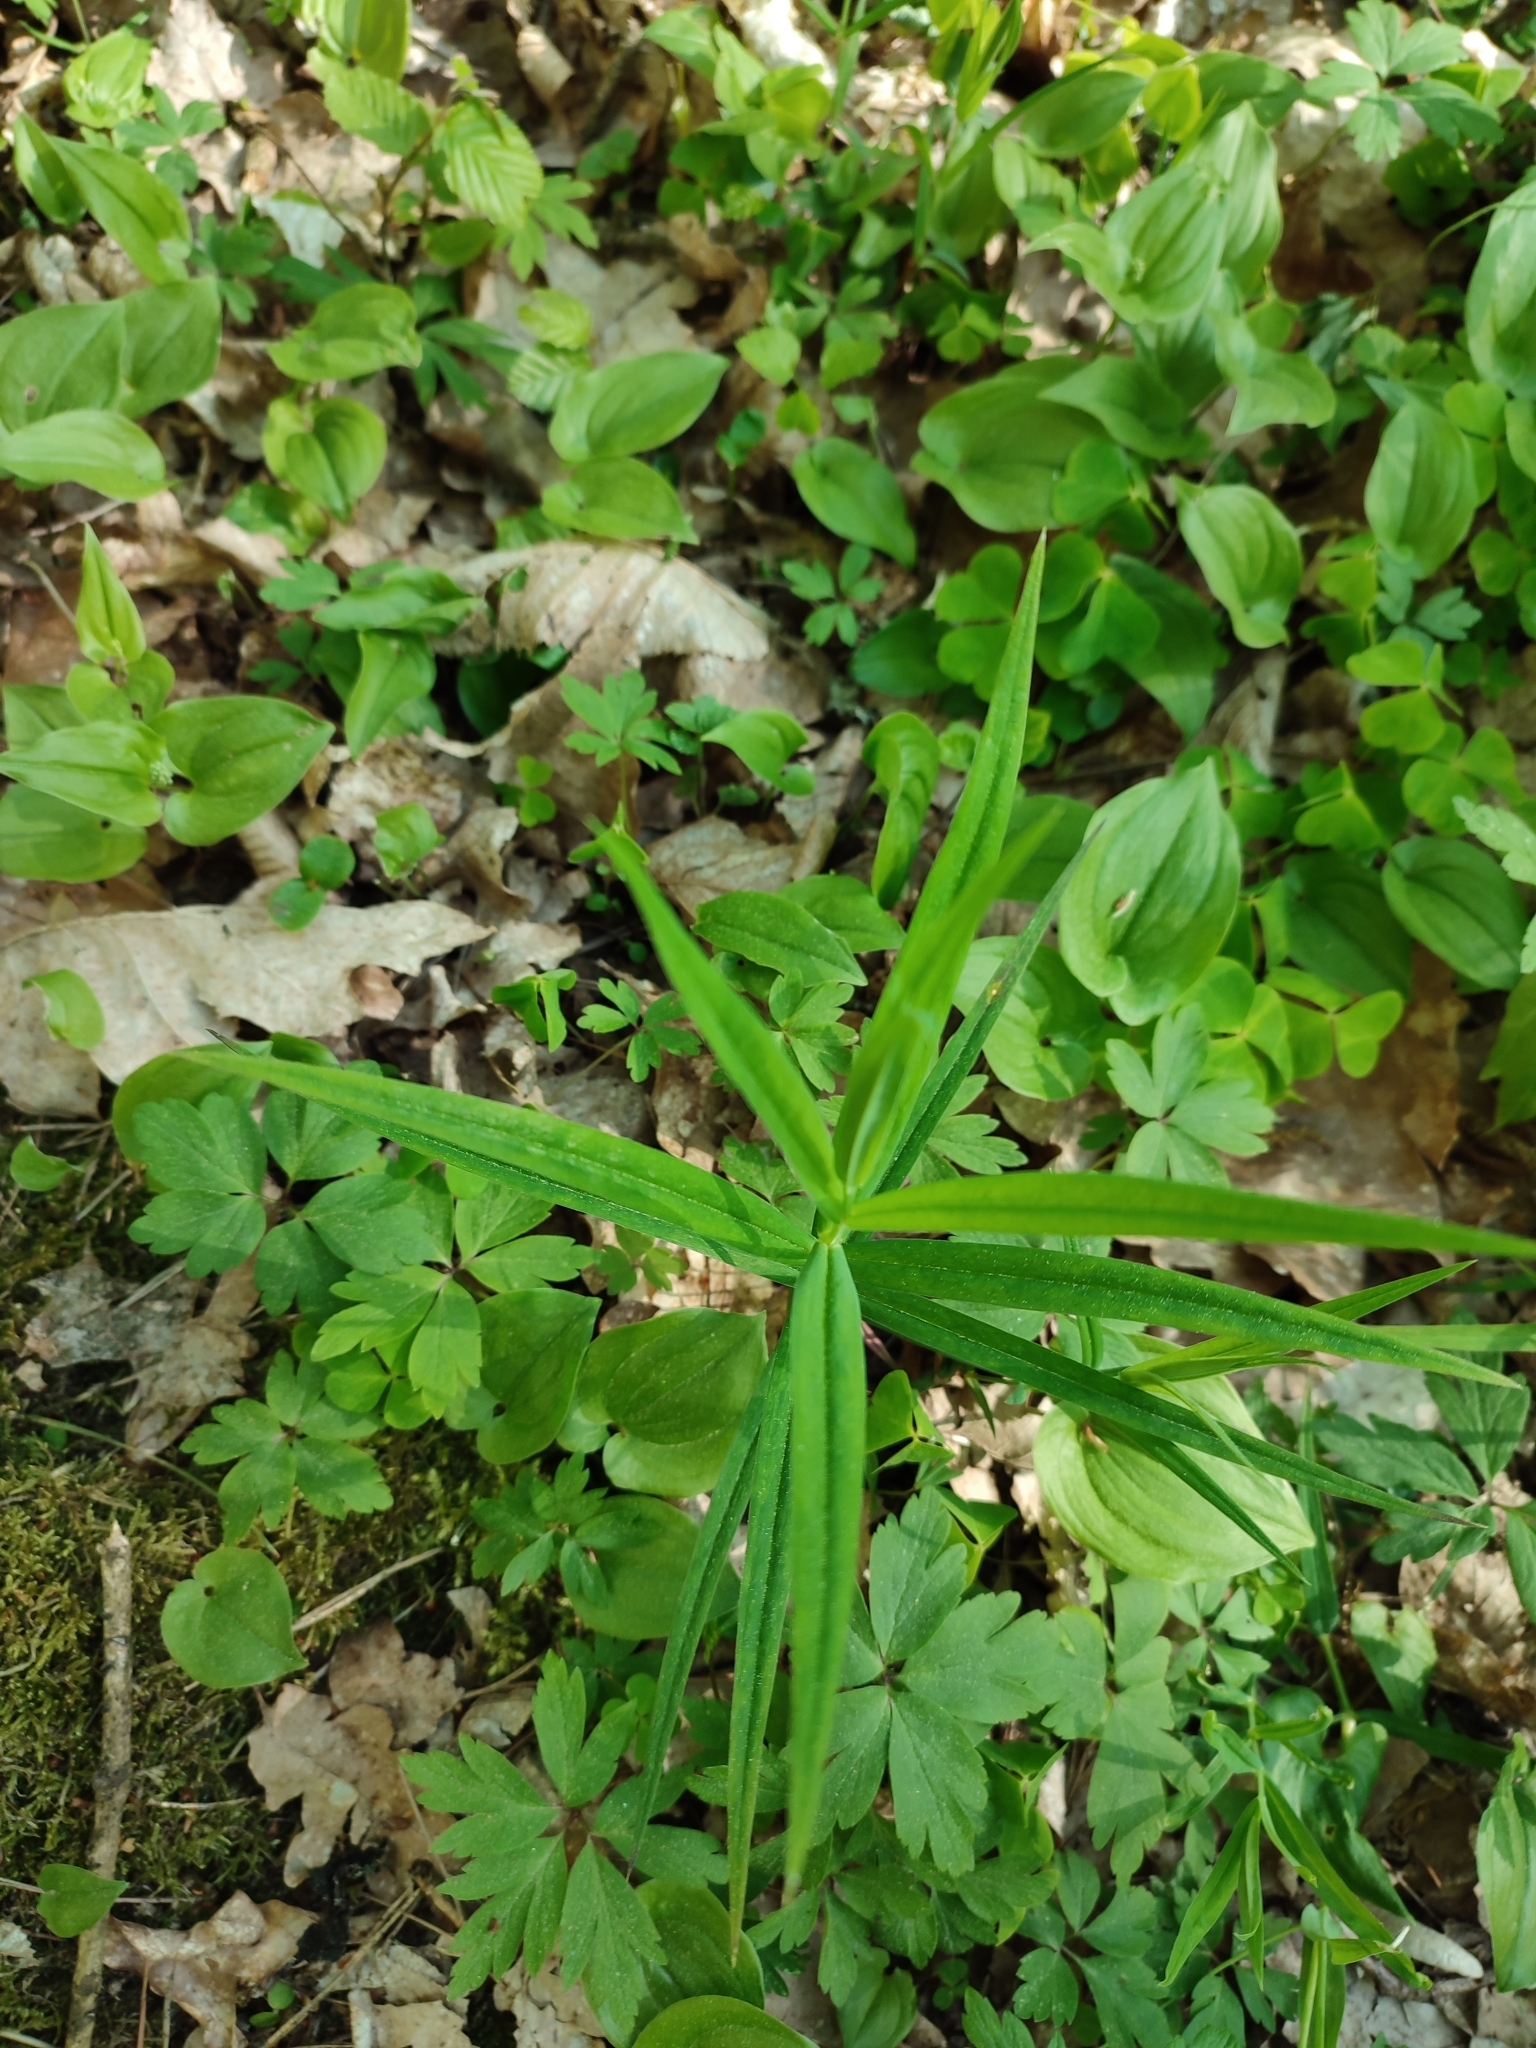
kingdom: Plantae
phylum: Tracheophyta
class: Magnoliopsida
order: Caryophyllales
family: Caryophyllaceae
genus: Rabelera
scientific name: Rabelera holostea
